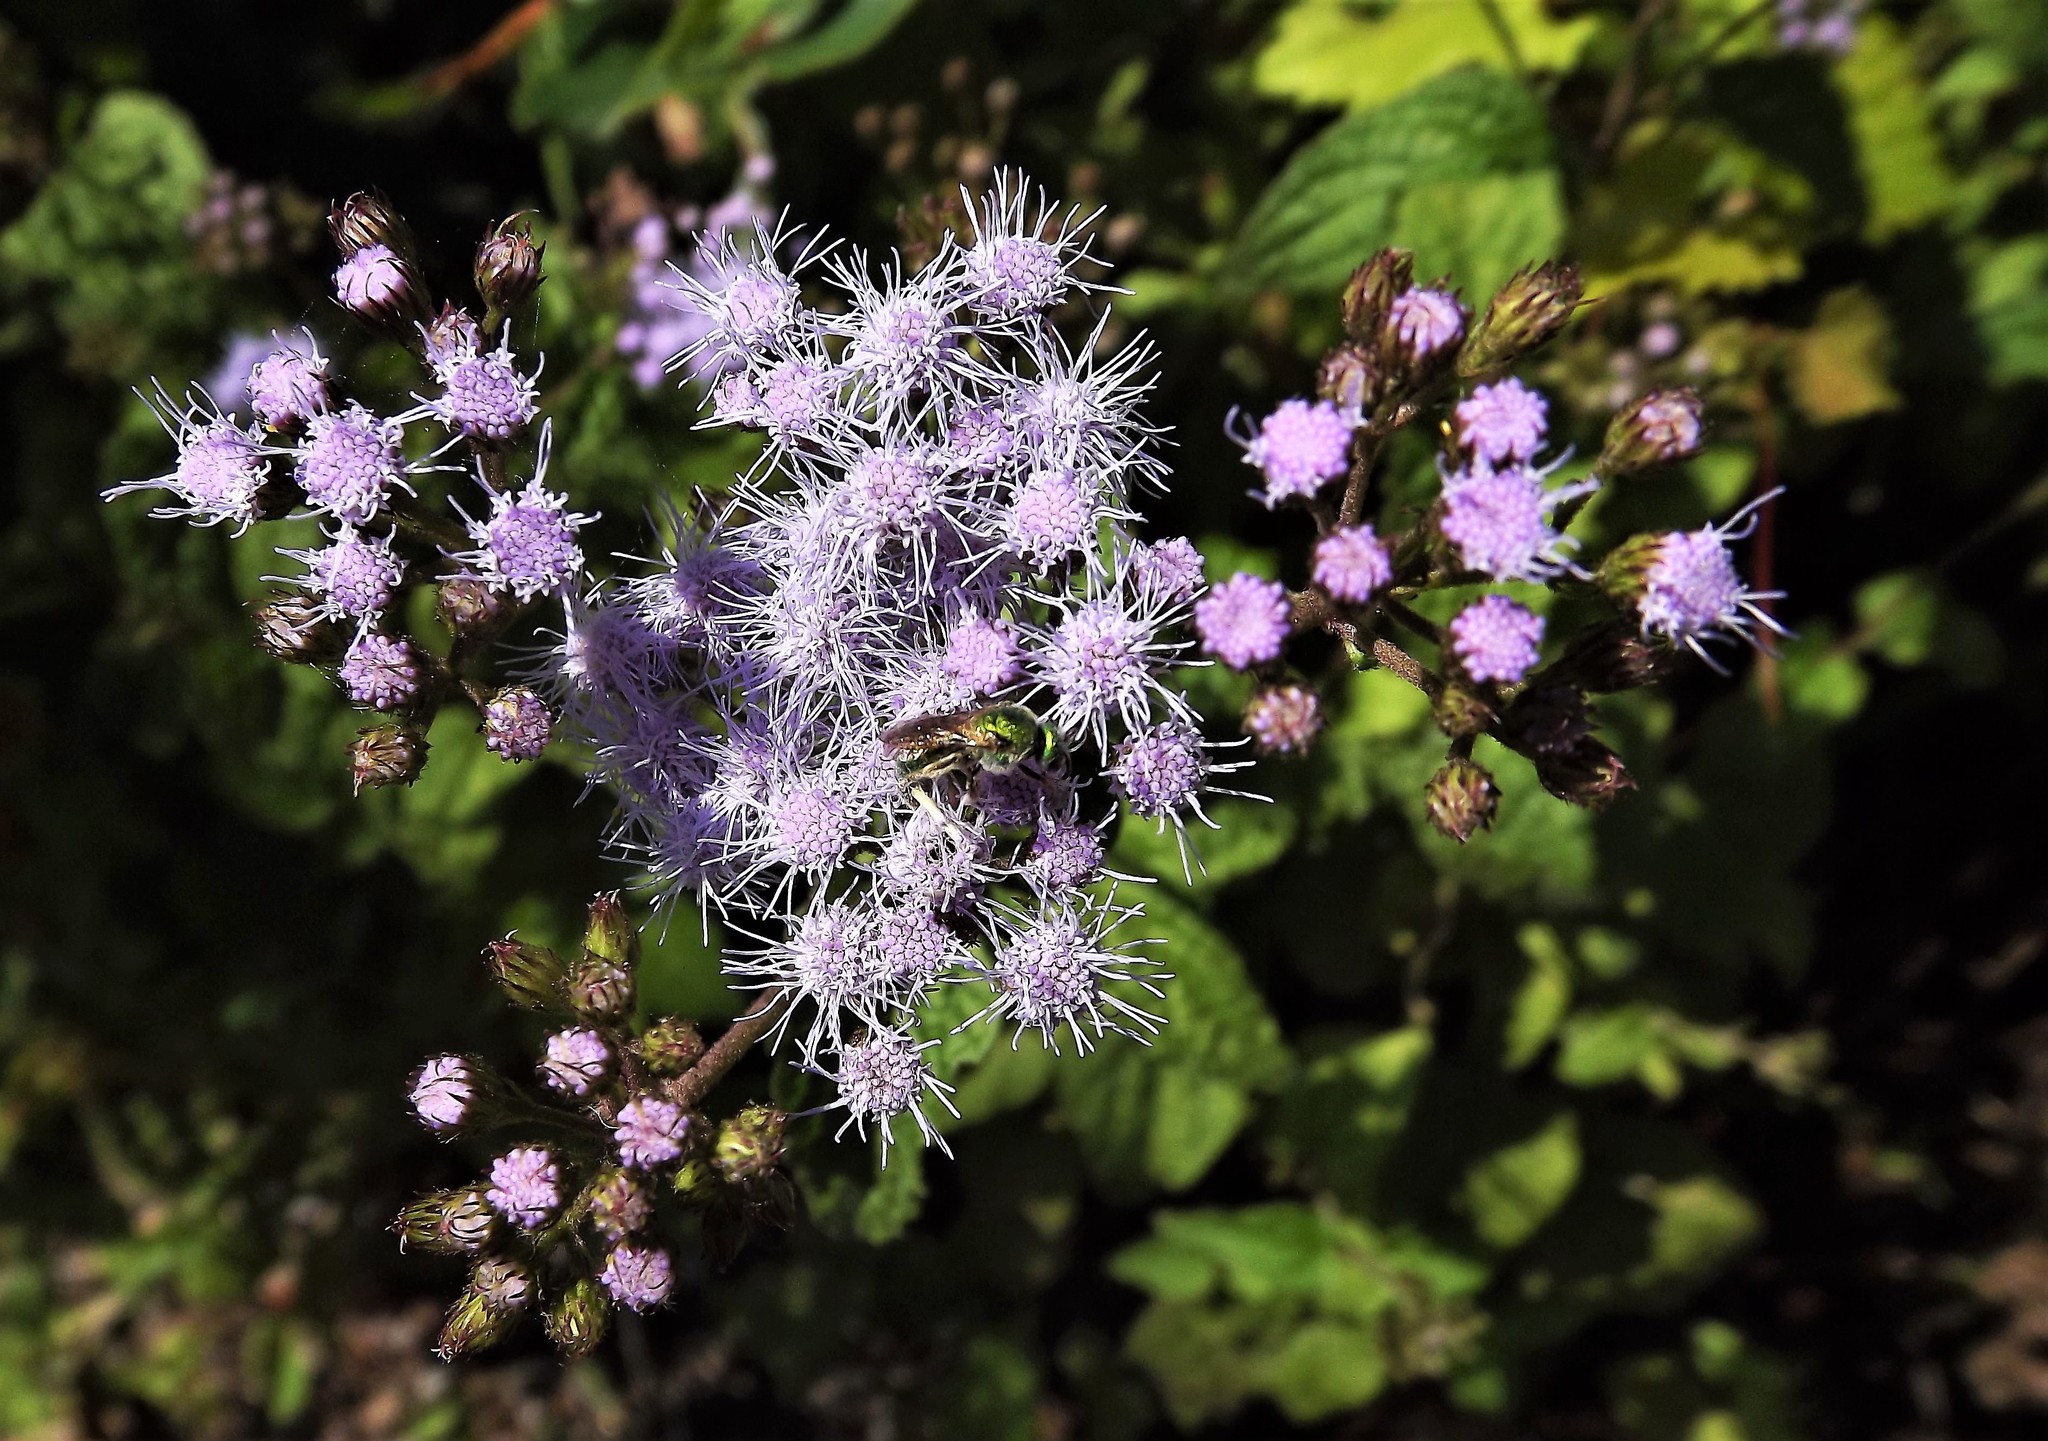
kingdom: Plantae
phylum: Tracheophyta
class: Magnoliopsida
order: Asterales
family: Asteraceae
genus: Conoclinium
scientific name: Conoclinium coelestinum
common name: Blue mistflower
